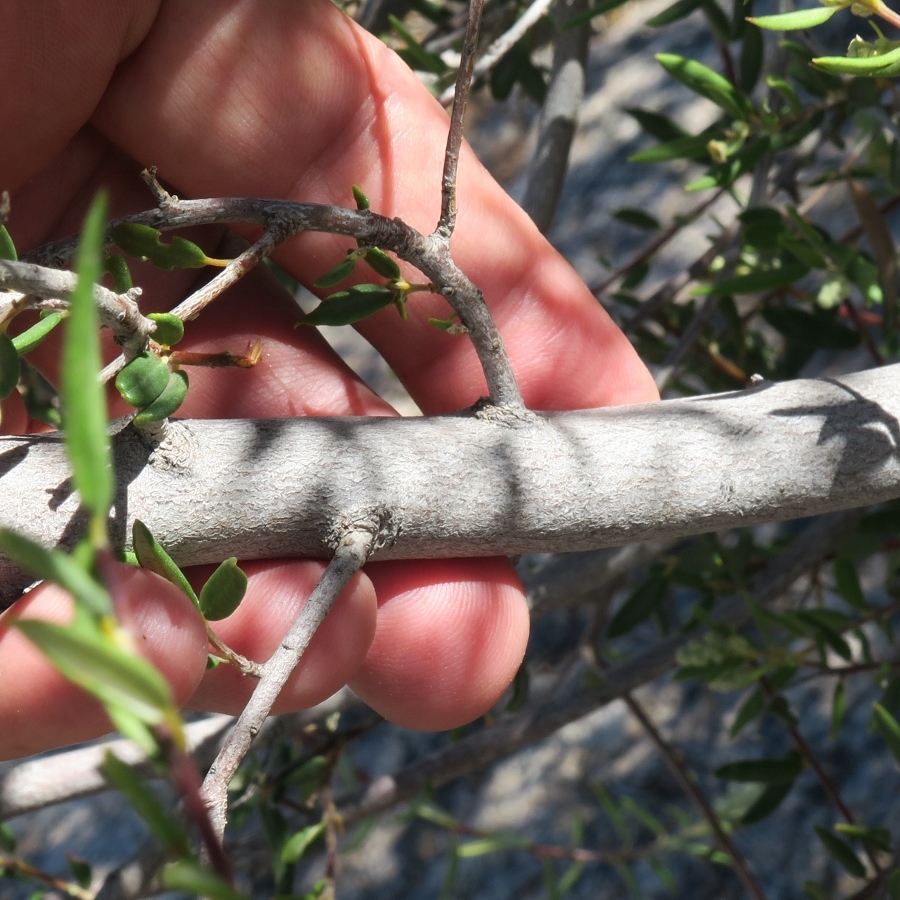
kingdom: Plantae
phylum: Tracheophyta
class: Magnoliopsida
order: Rosales
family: Rhamnaceae
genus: Phylica
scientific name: Phylica oleifolia
